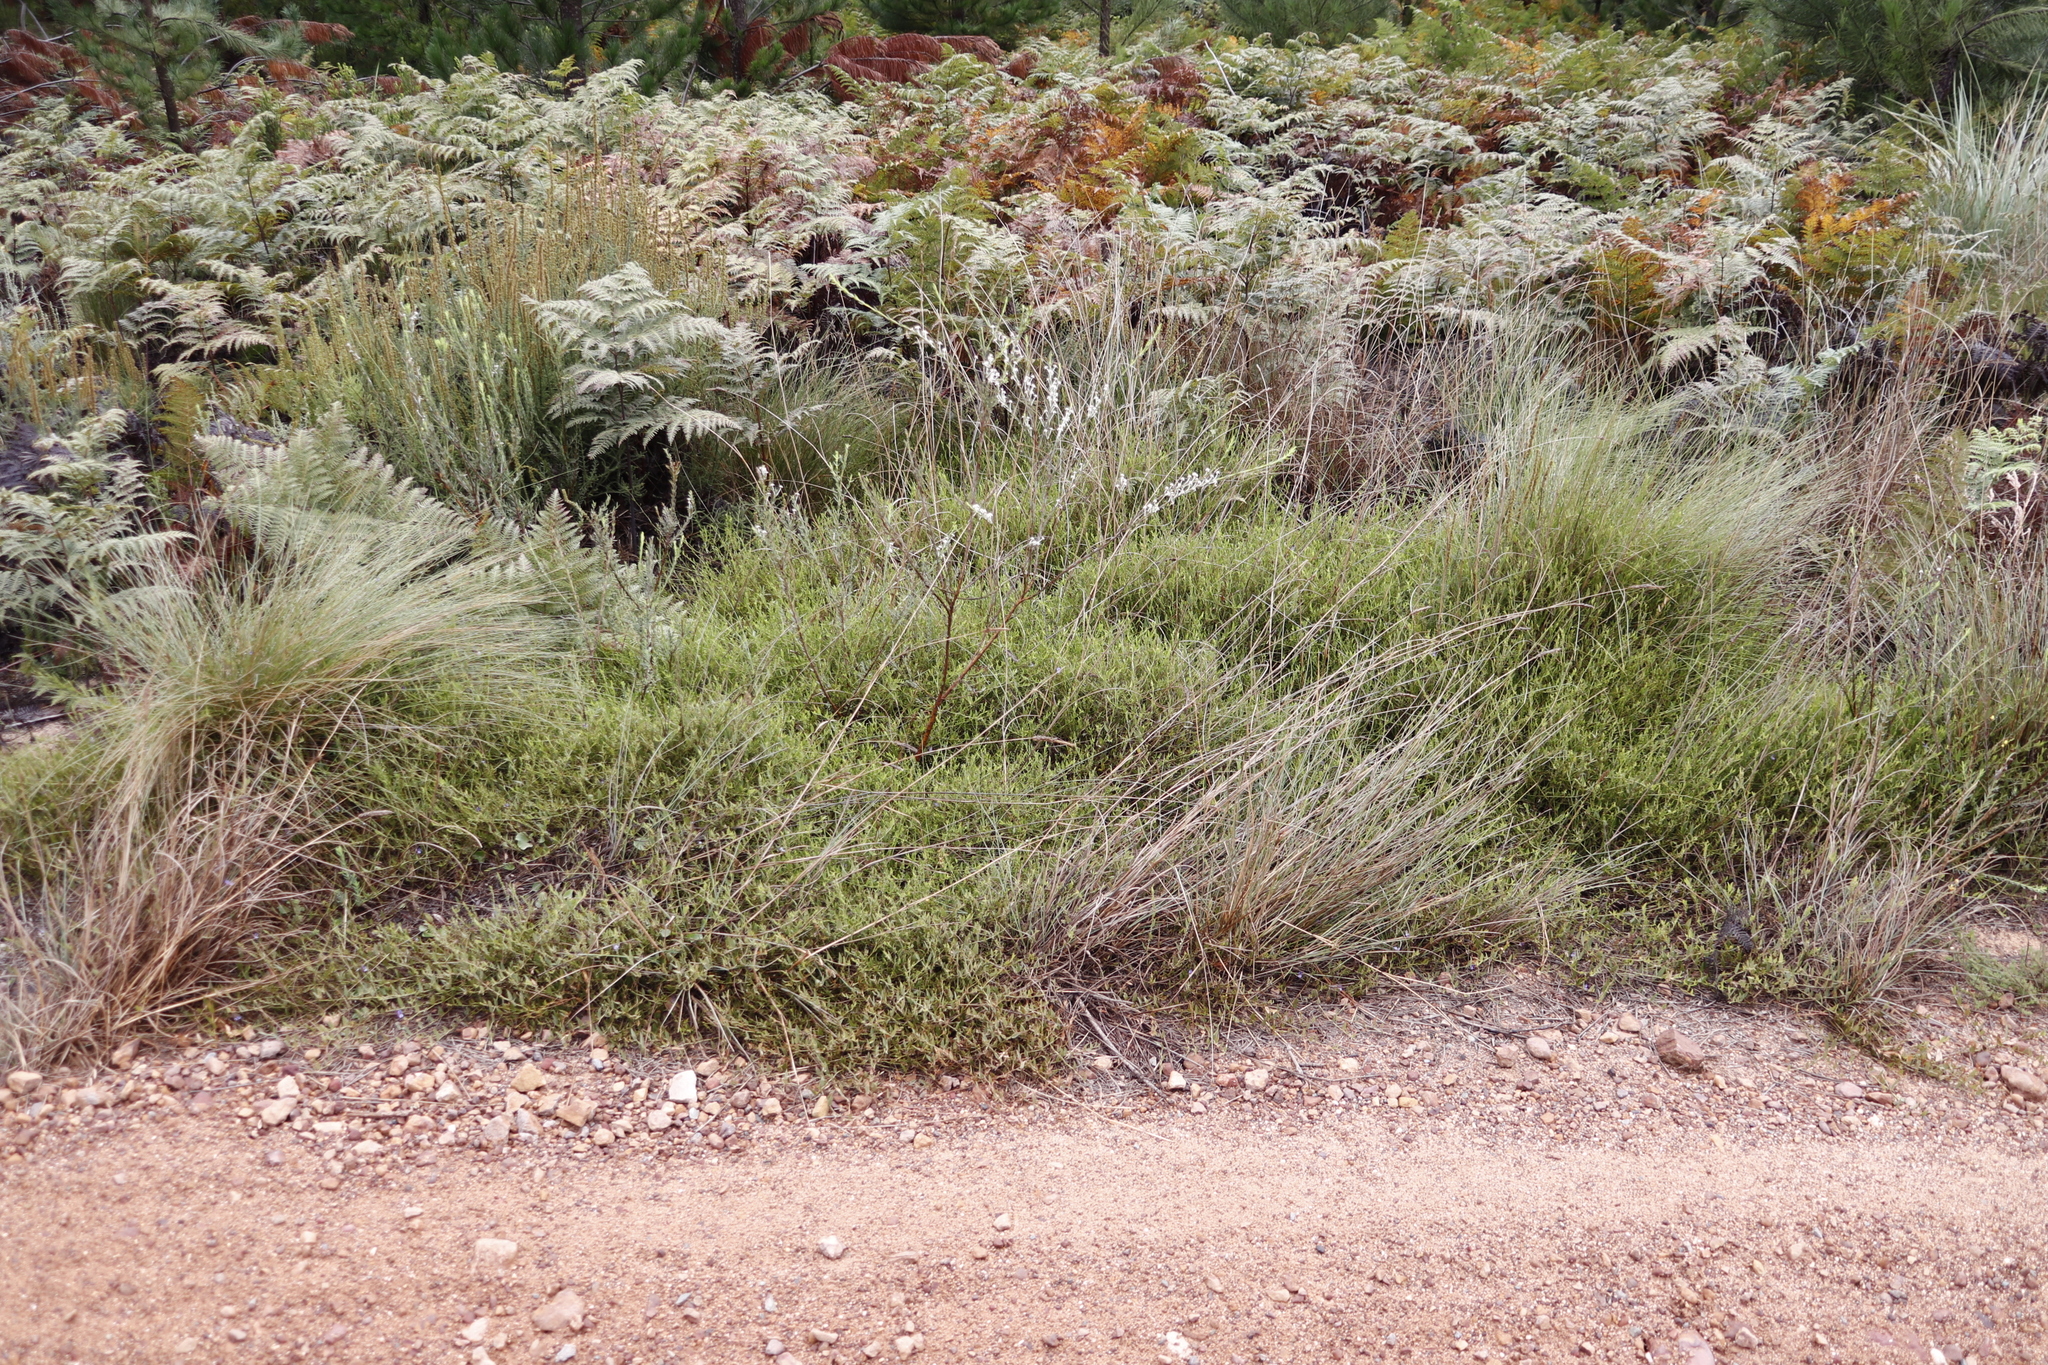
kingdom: Plantae
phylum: Tracheophyta
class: Magnoliopsida
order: Fabales
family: Fabaceae
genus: Psoralea
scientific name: Psoralea monophylla
